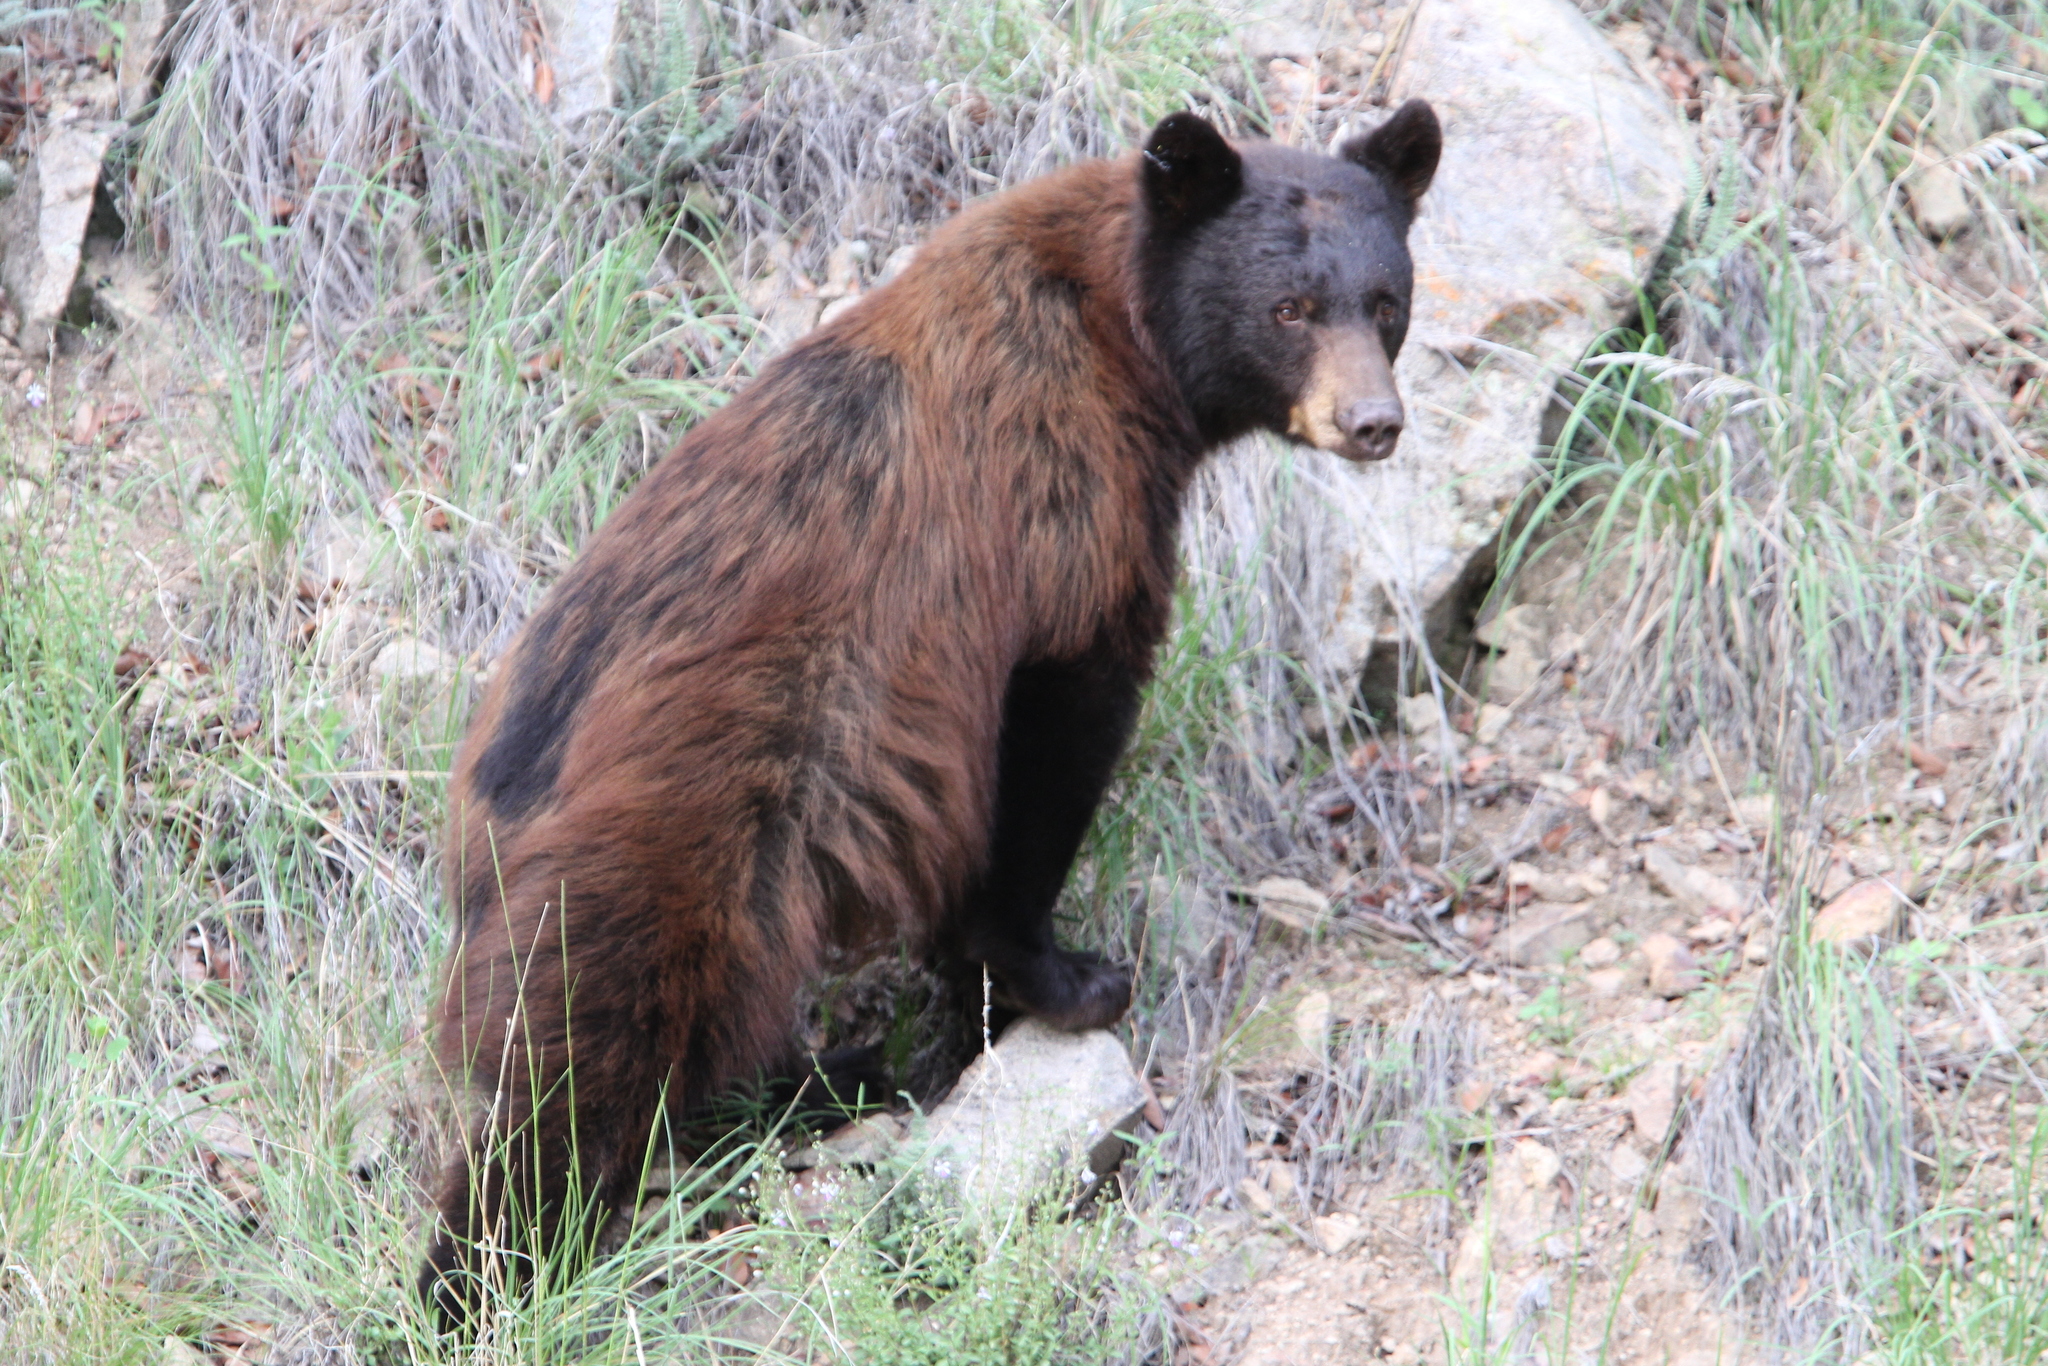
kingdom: Animalia
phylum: Chordata
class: Mammalia
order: Carnivora
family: Ursidae
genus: Ursus
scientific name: Ursus americanus
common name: American black bear
